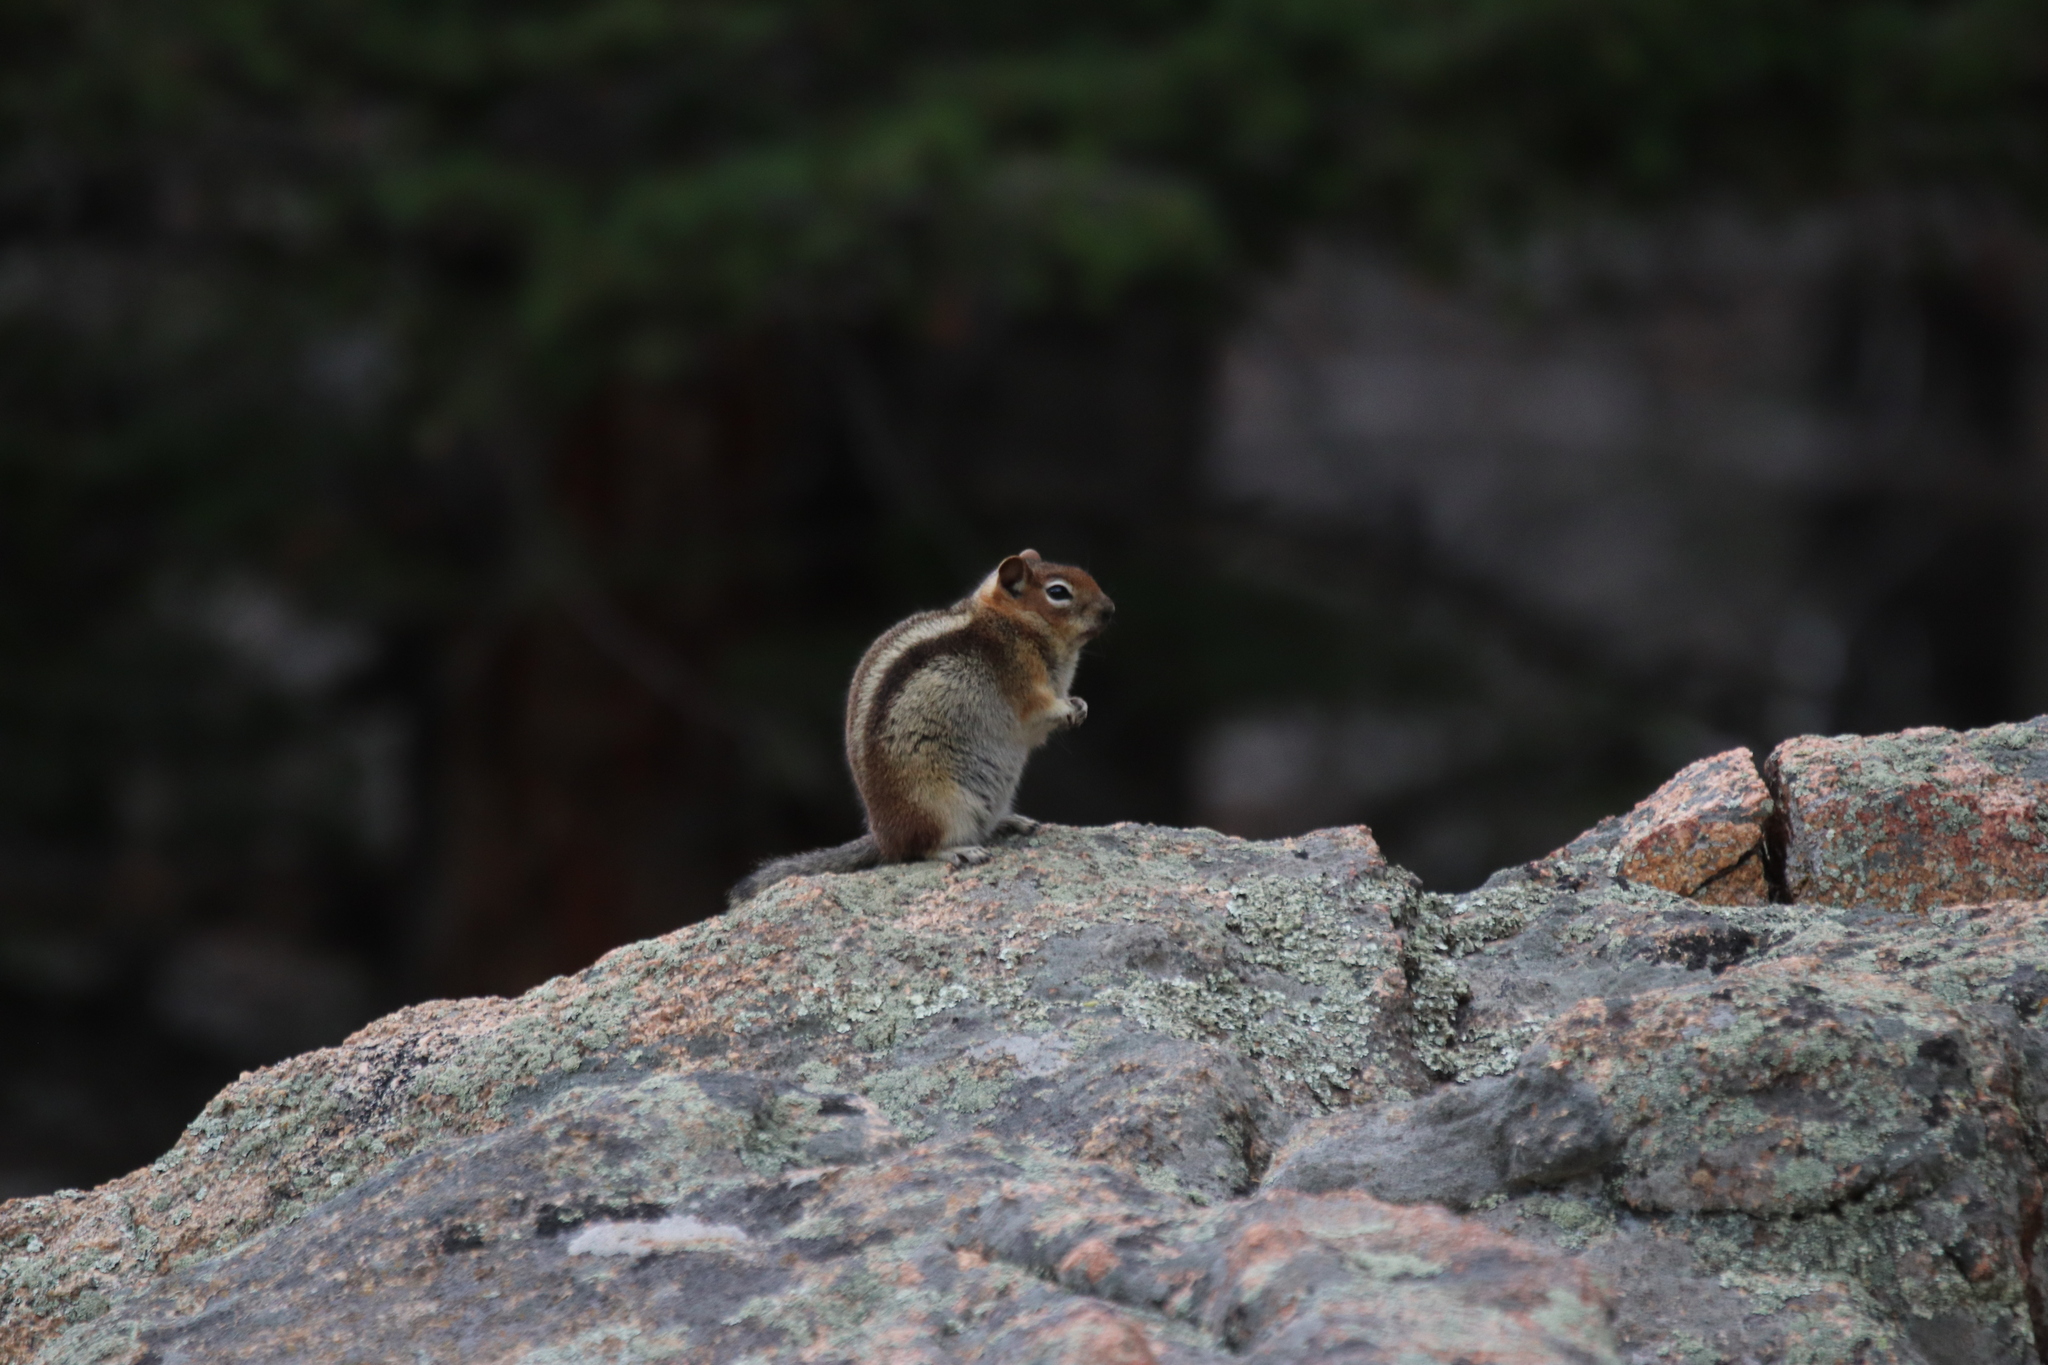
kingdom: Animalia
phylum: Chordata
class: Mammalia
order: Rodentia
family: Sciuridae
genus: Callospermophilus
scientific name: Callospermophilus lateralis
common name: Golden-mantled ground squirrel
